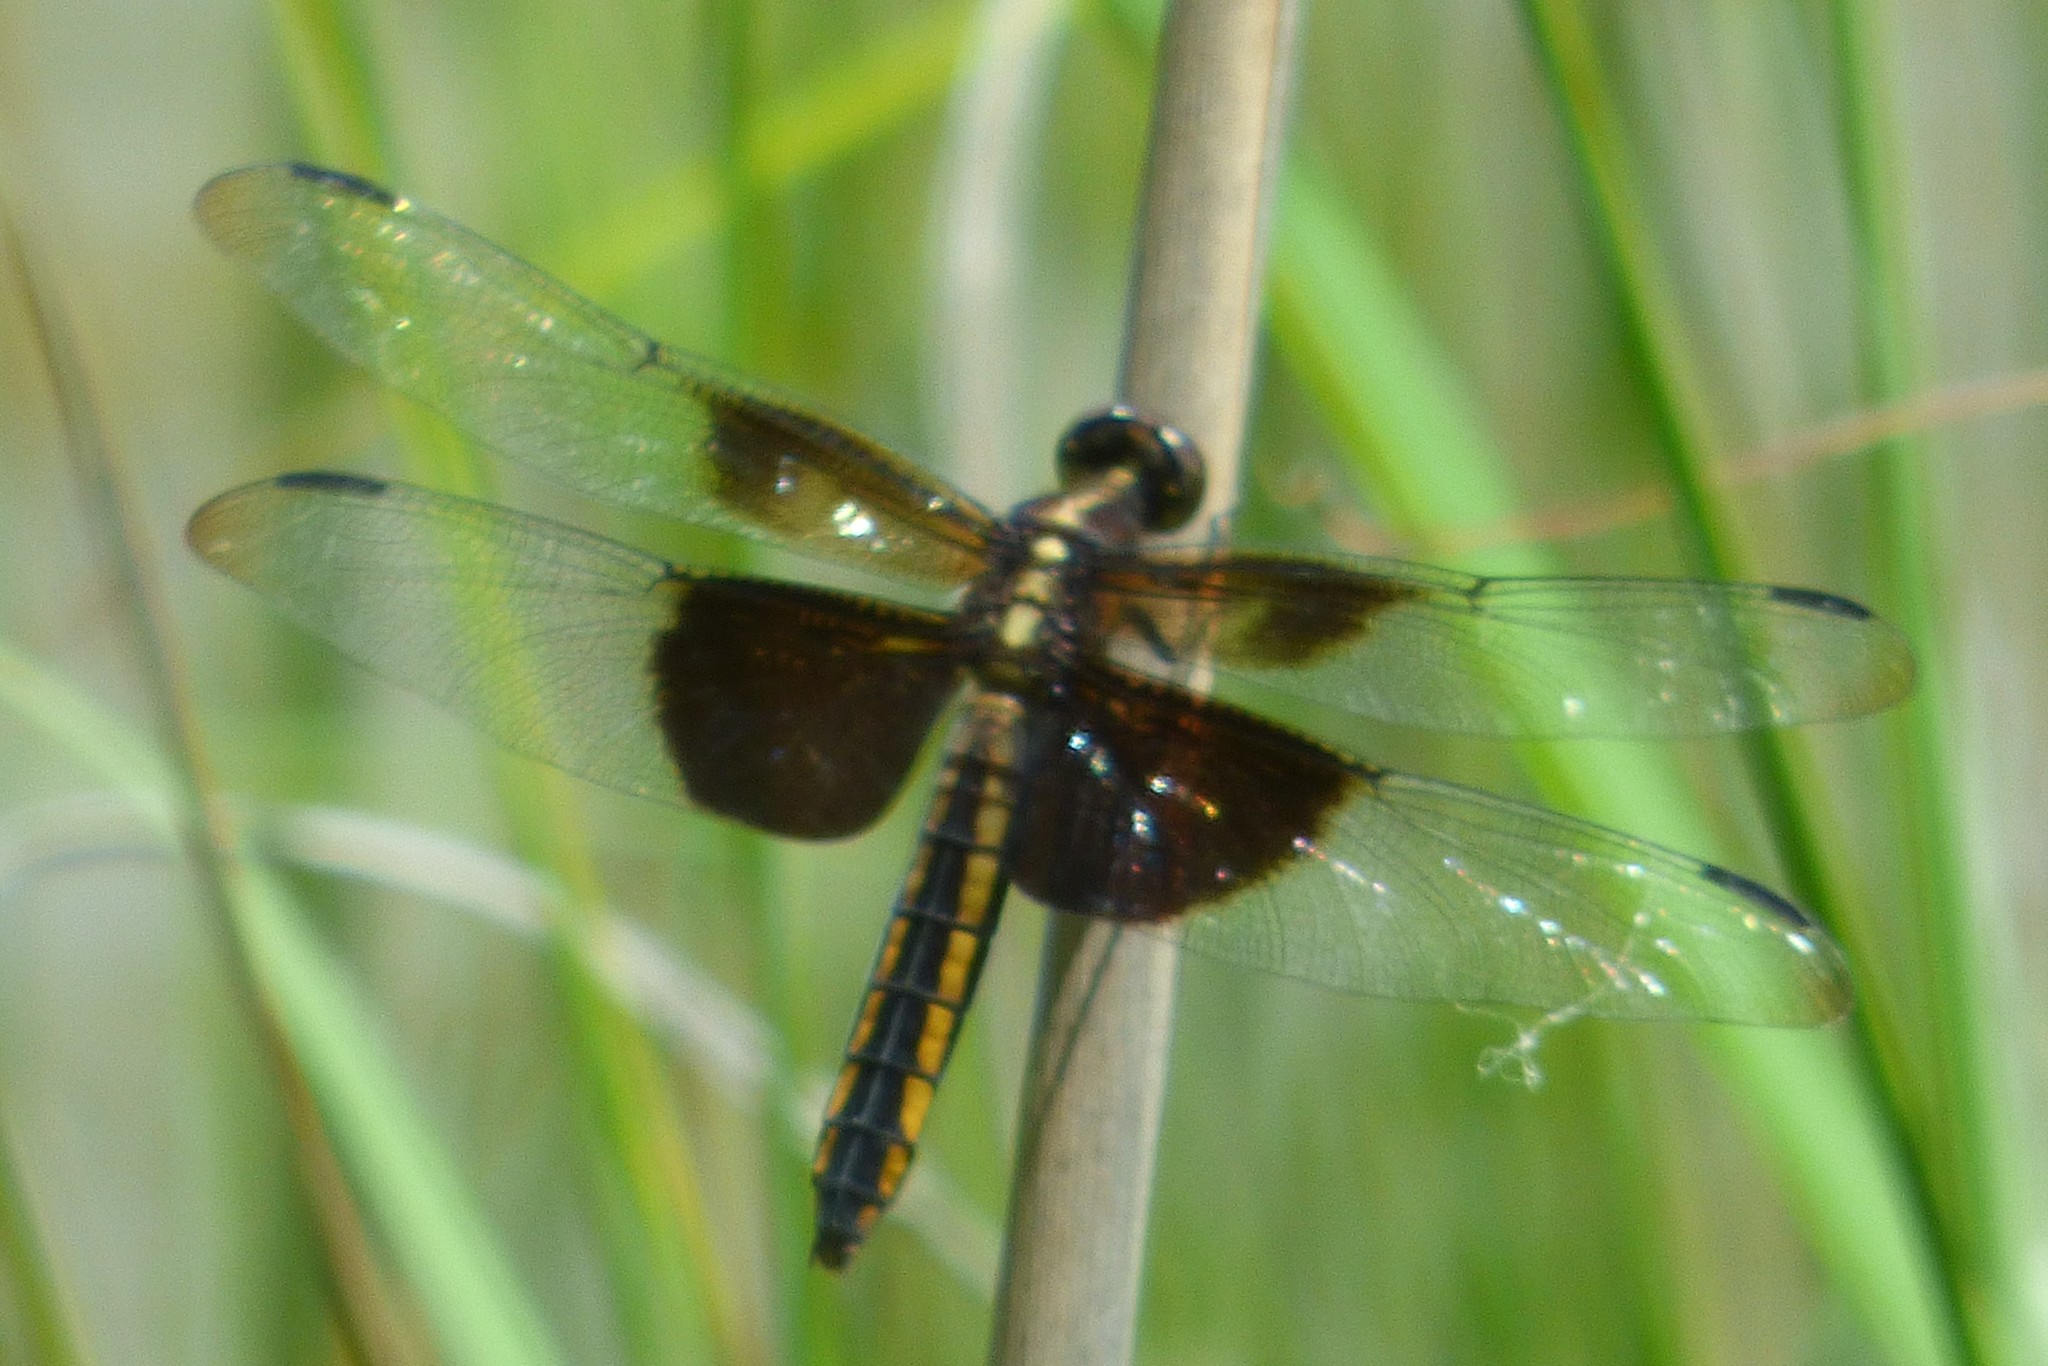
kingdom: Animalia
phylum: Arthropoda
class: Insecta
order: Odonata
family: Libellulidae
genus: Libellula
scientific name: Libellula luctuosa
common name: Widow skimmer
